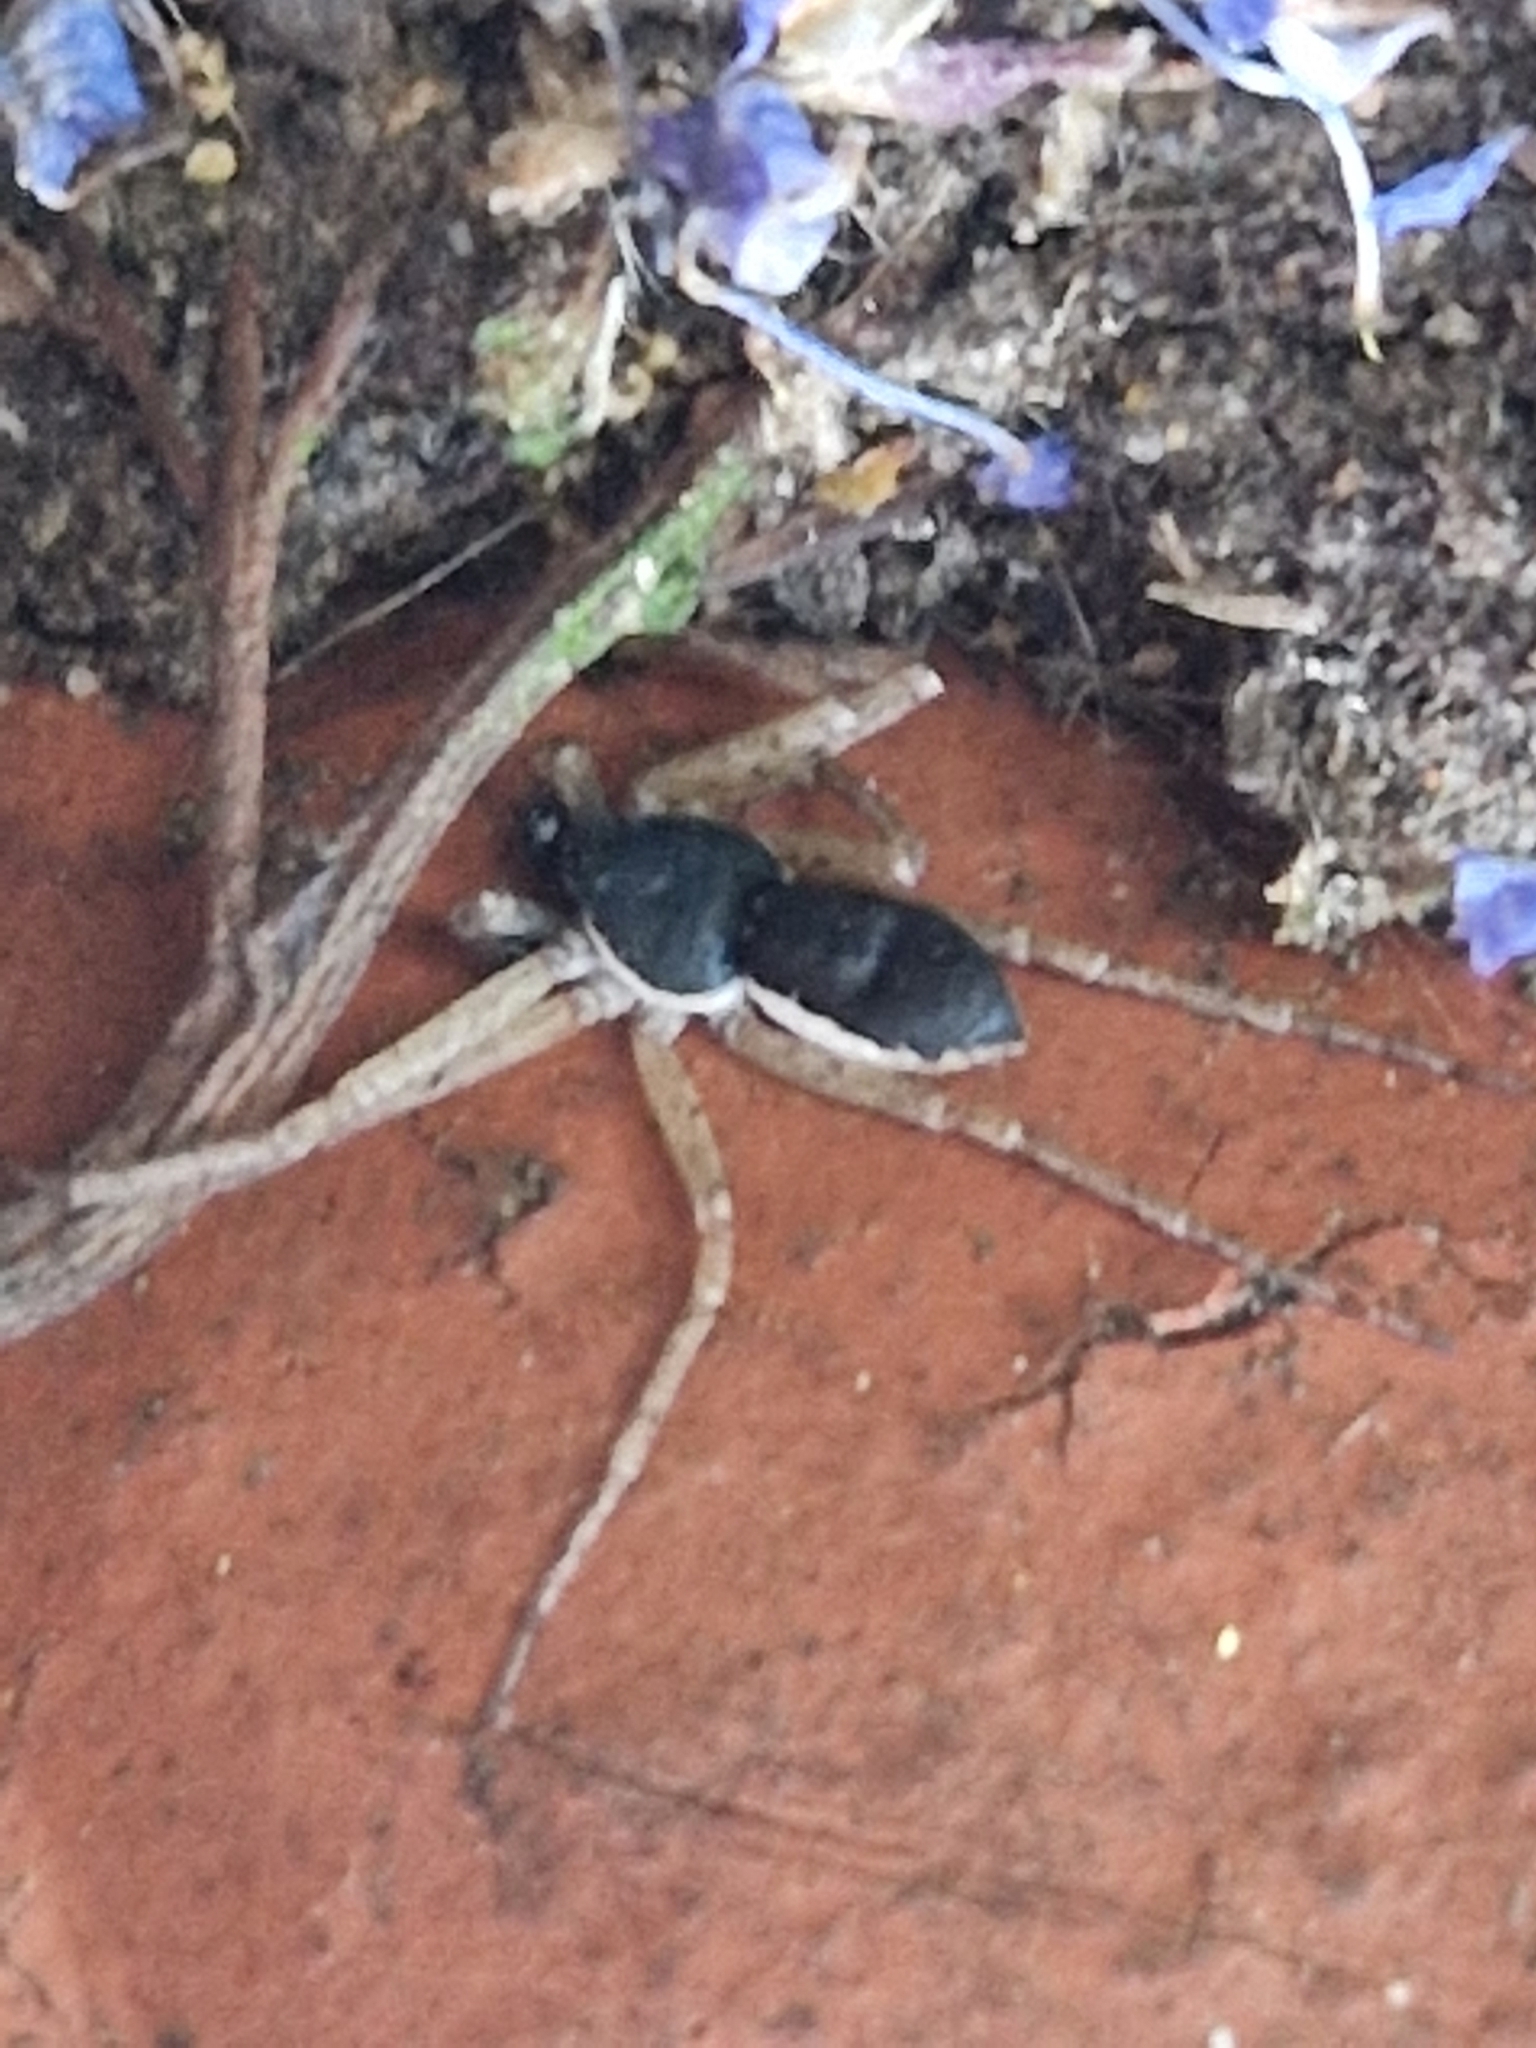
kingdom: Animalia
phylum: Arthropoda
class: Arachnida
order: Araneae
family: Philodromidae
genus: Philodromus
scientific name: Philodromus dispar
